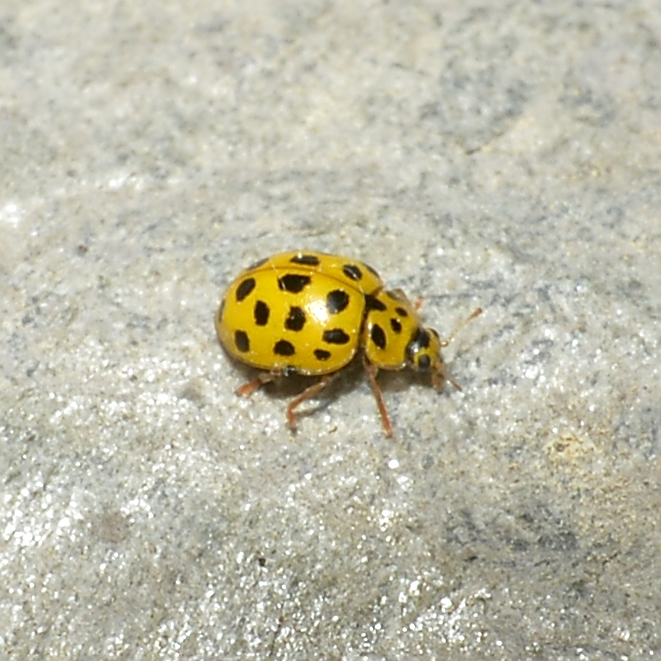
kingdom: Animalia
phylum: Arthropoda
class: Insecta
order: Coleoptera
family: Coccinellidae
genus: Psyllobora
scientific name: Psyllobora vigintiduopunctata
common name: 22-spot ladybird
